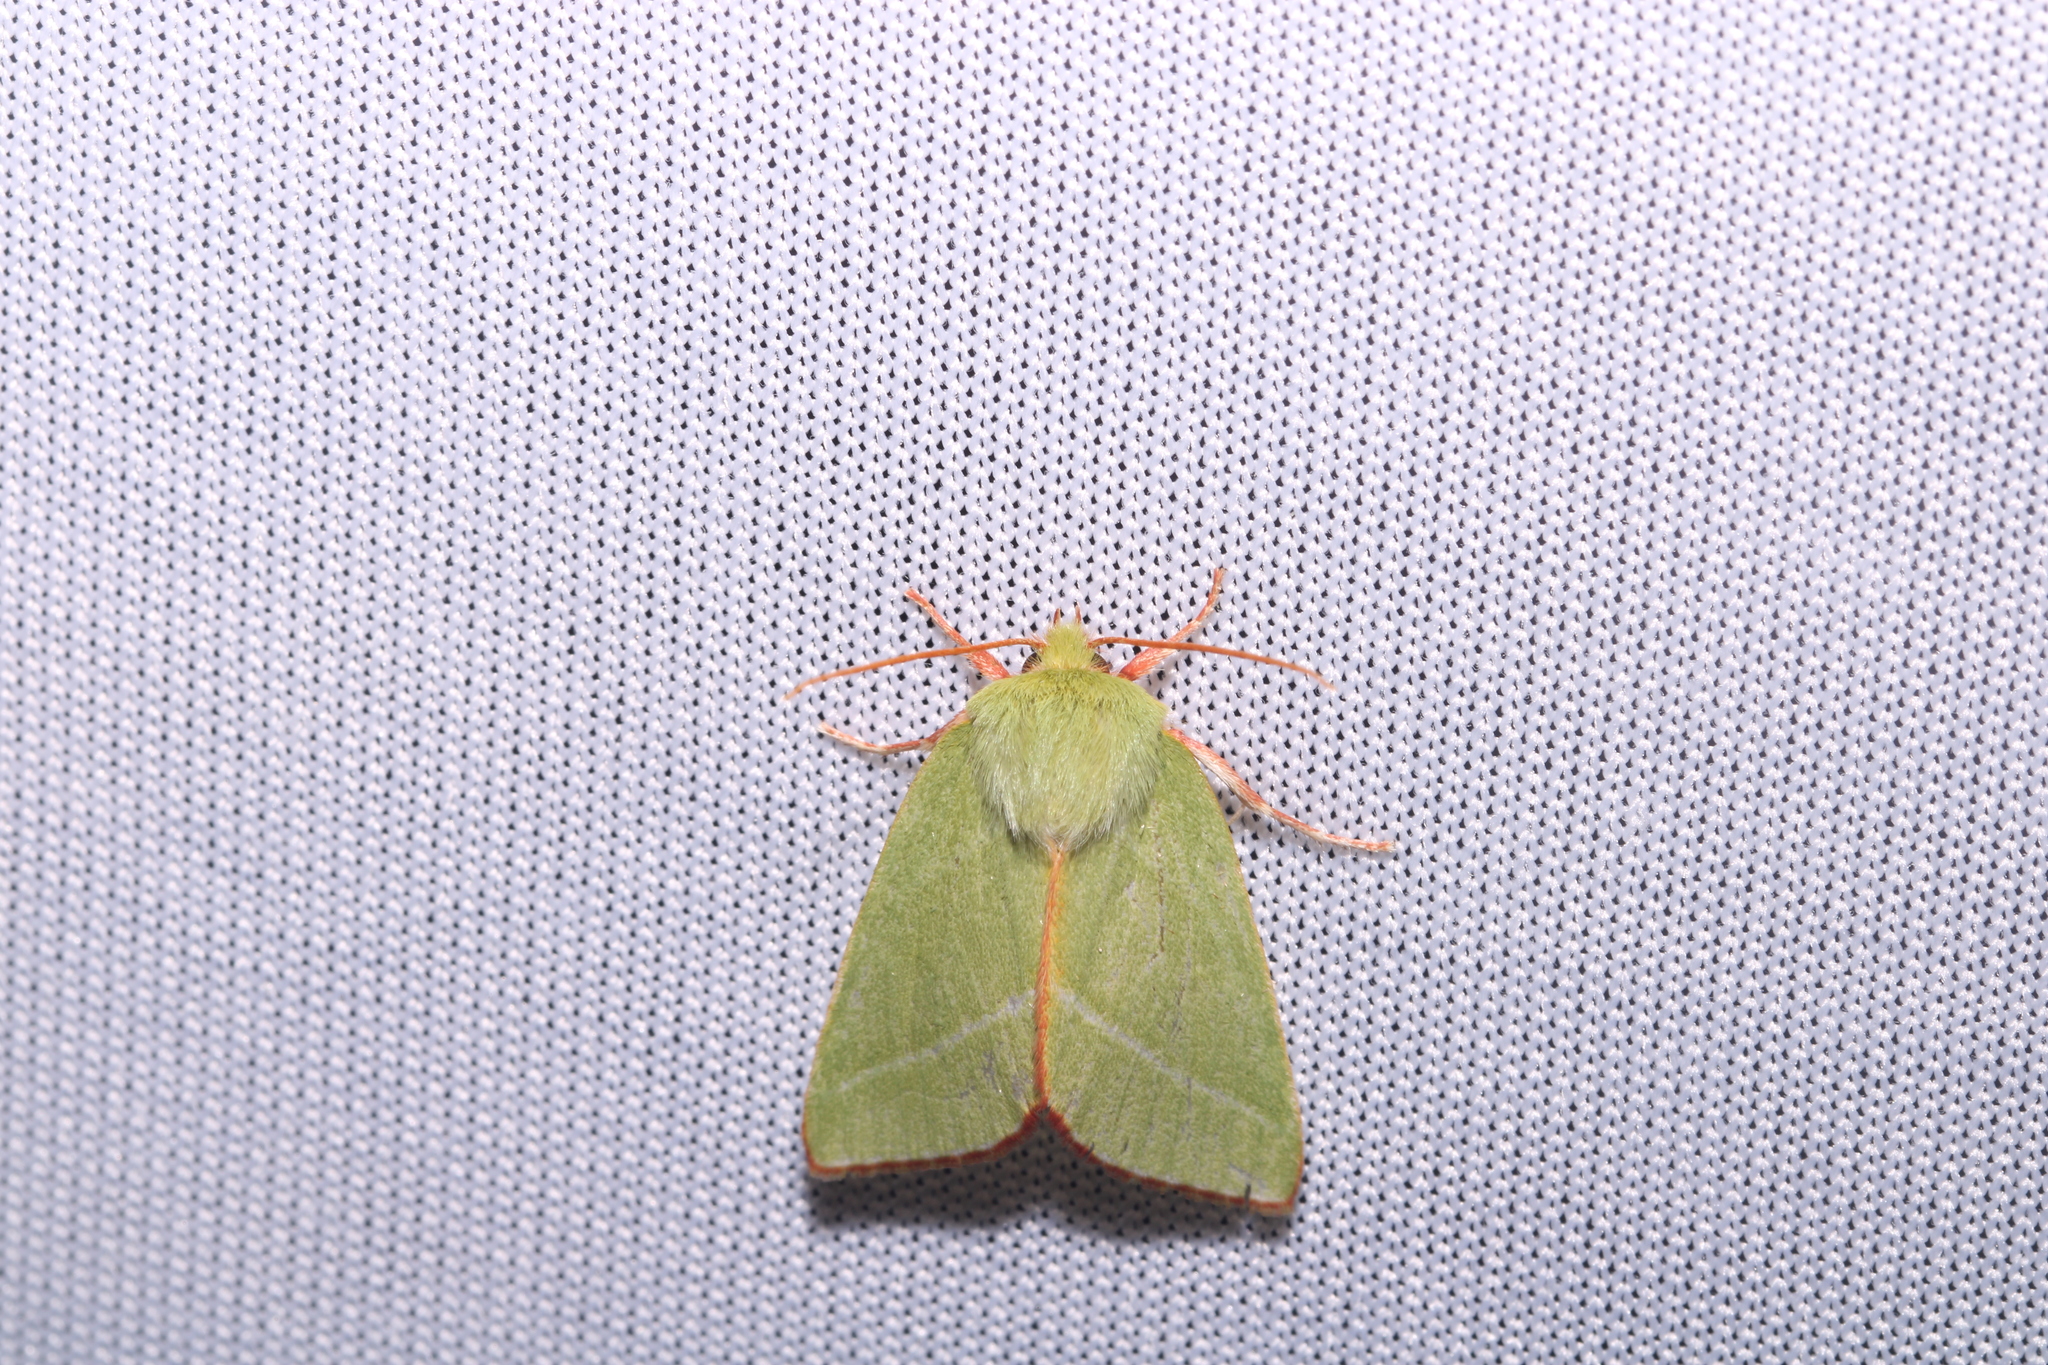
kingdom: Animalia
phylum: Arthropoda
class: Insecta
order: Lepidoptera
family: Nolidae
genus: Pseudoips
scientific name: Pseudoips prasinana
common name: Green silver-lines
